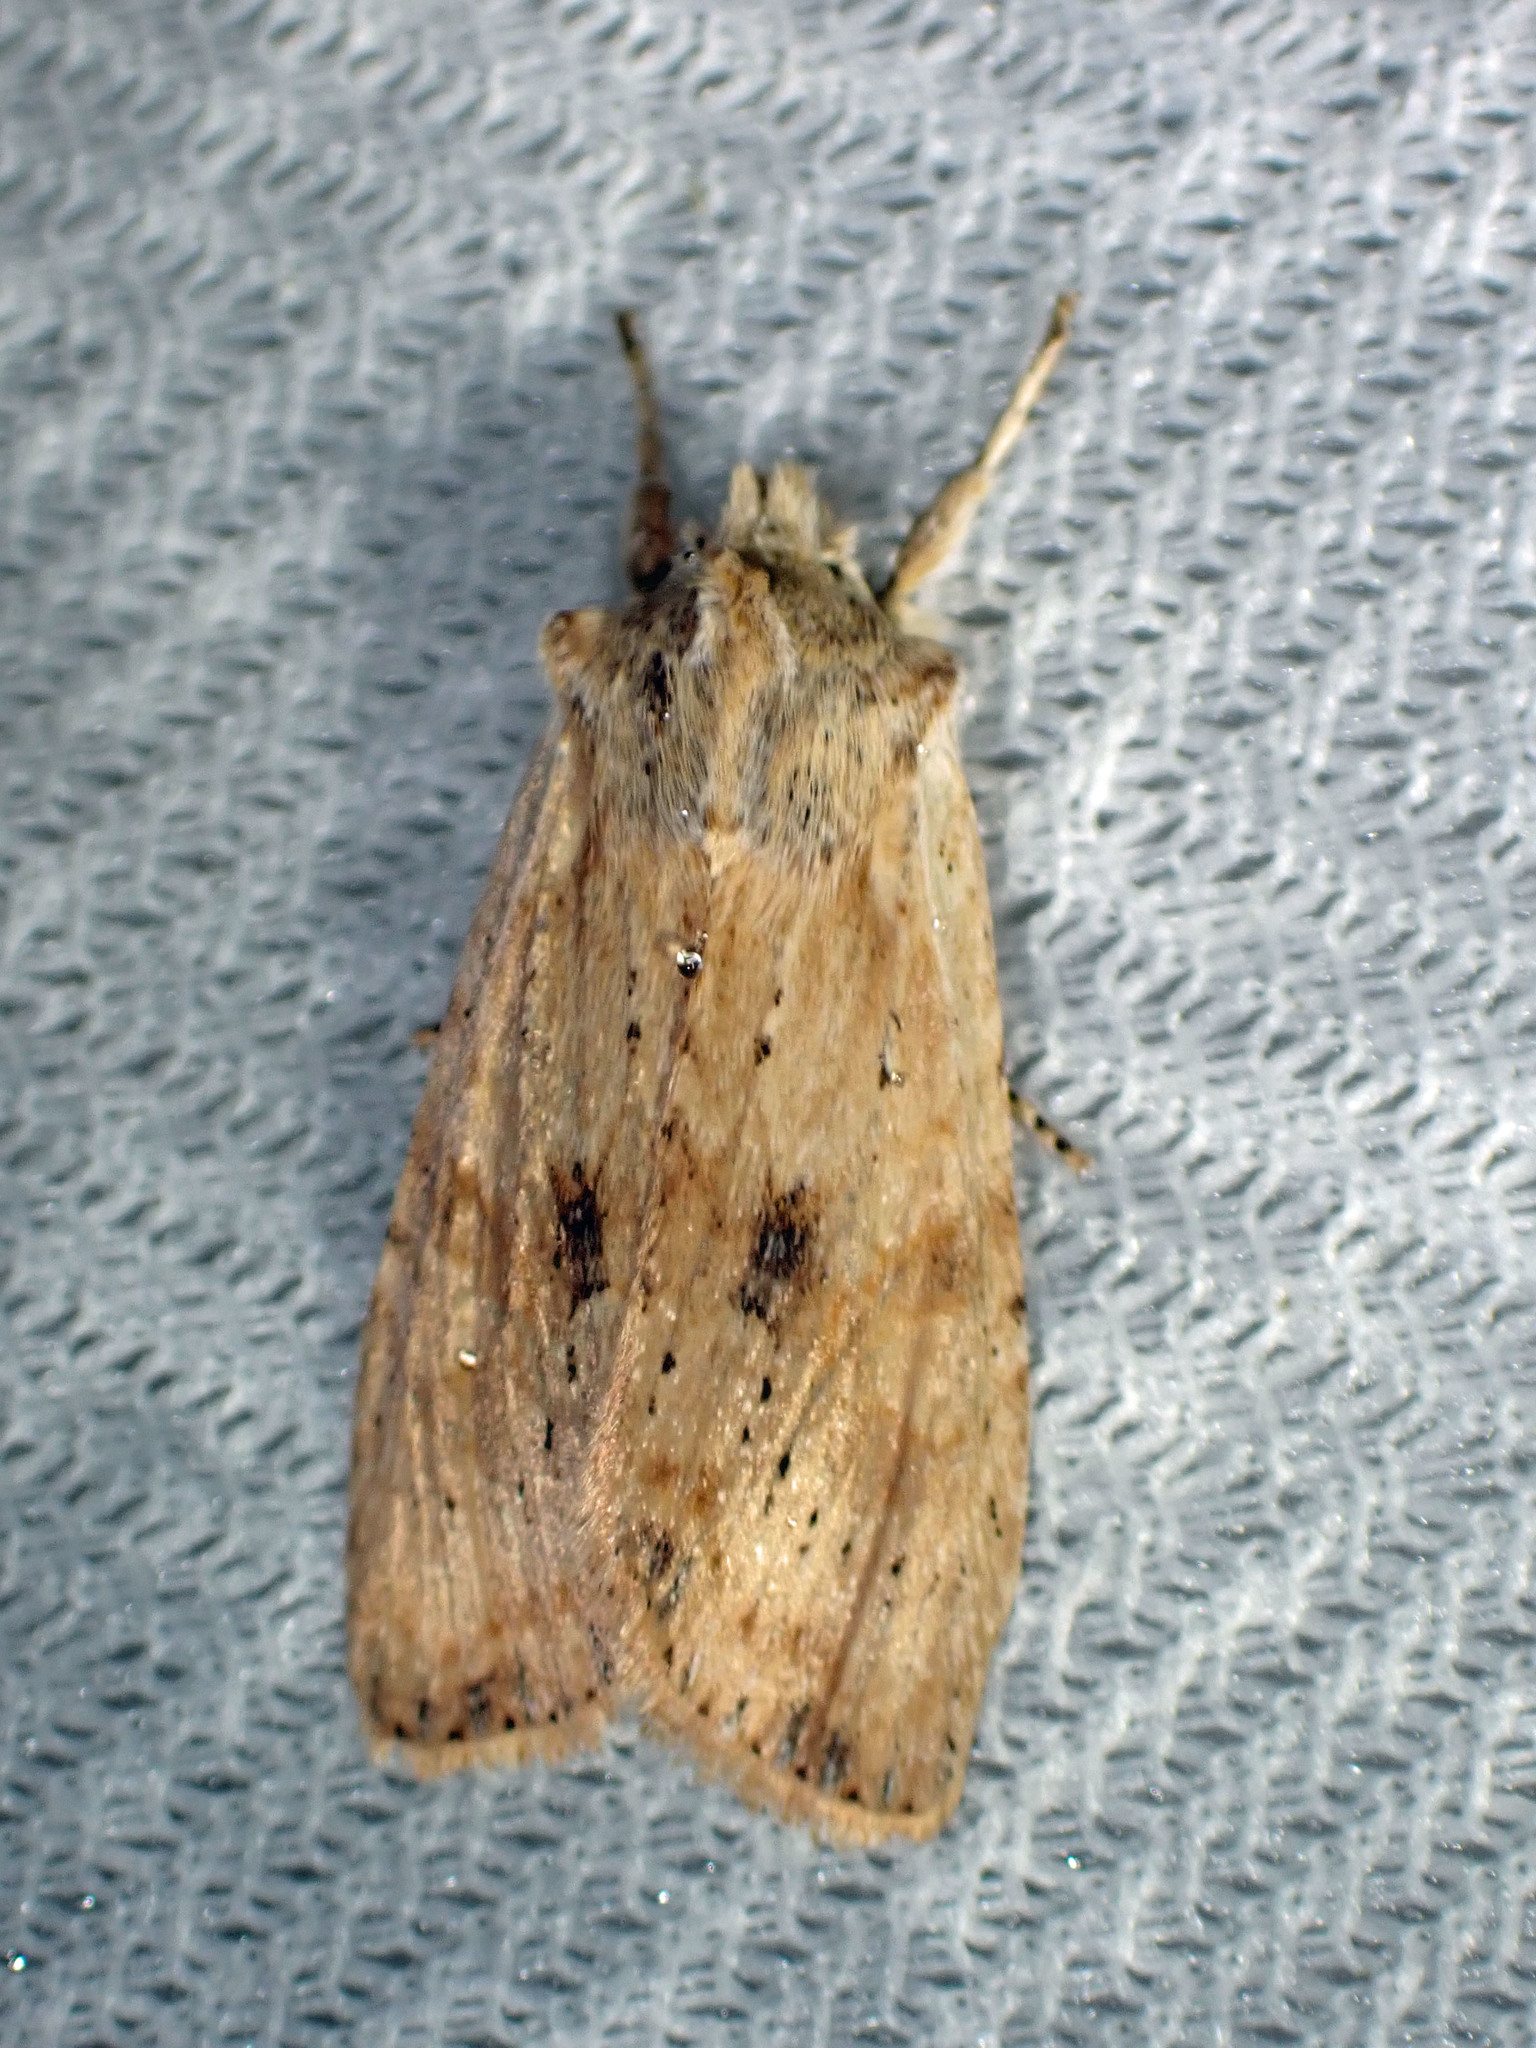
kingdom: Animalia
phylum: Arthropoda
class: Insecta
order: Lepidoptera
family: Noctuidae
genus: Lithophane
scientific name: Lithophane innominata
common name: Nameless pinion moth
